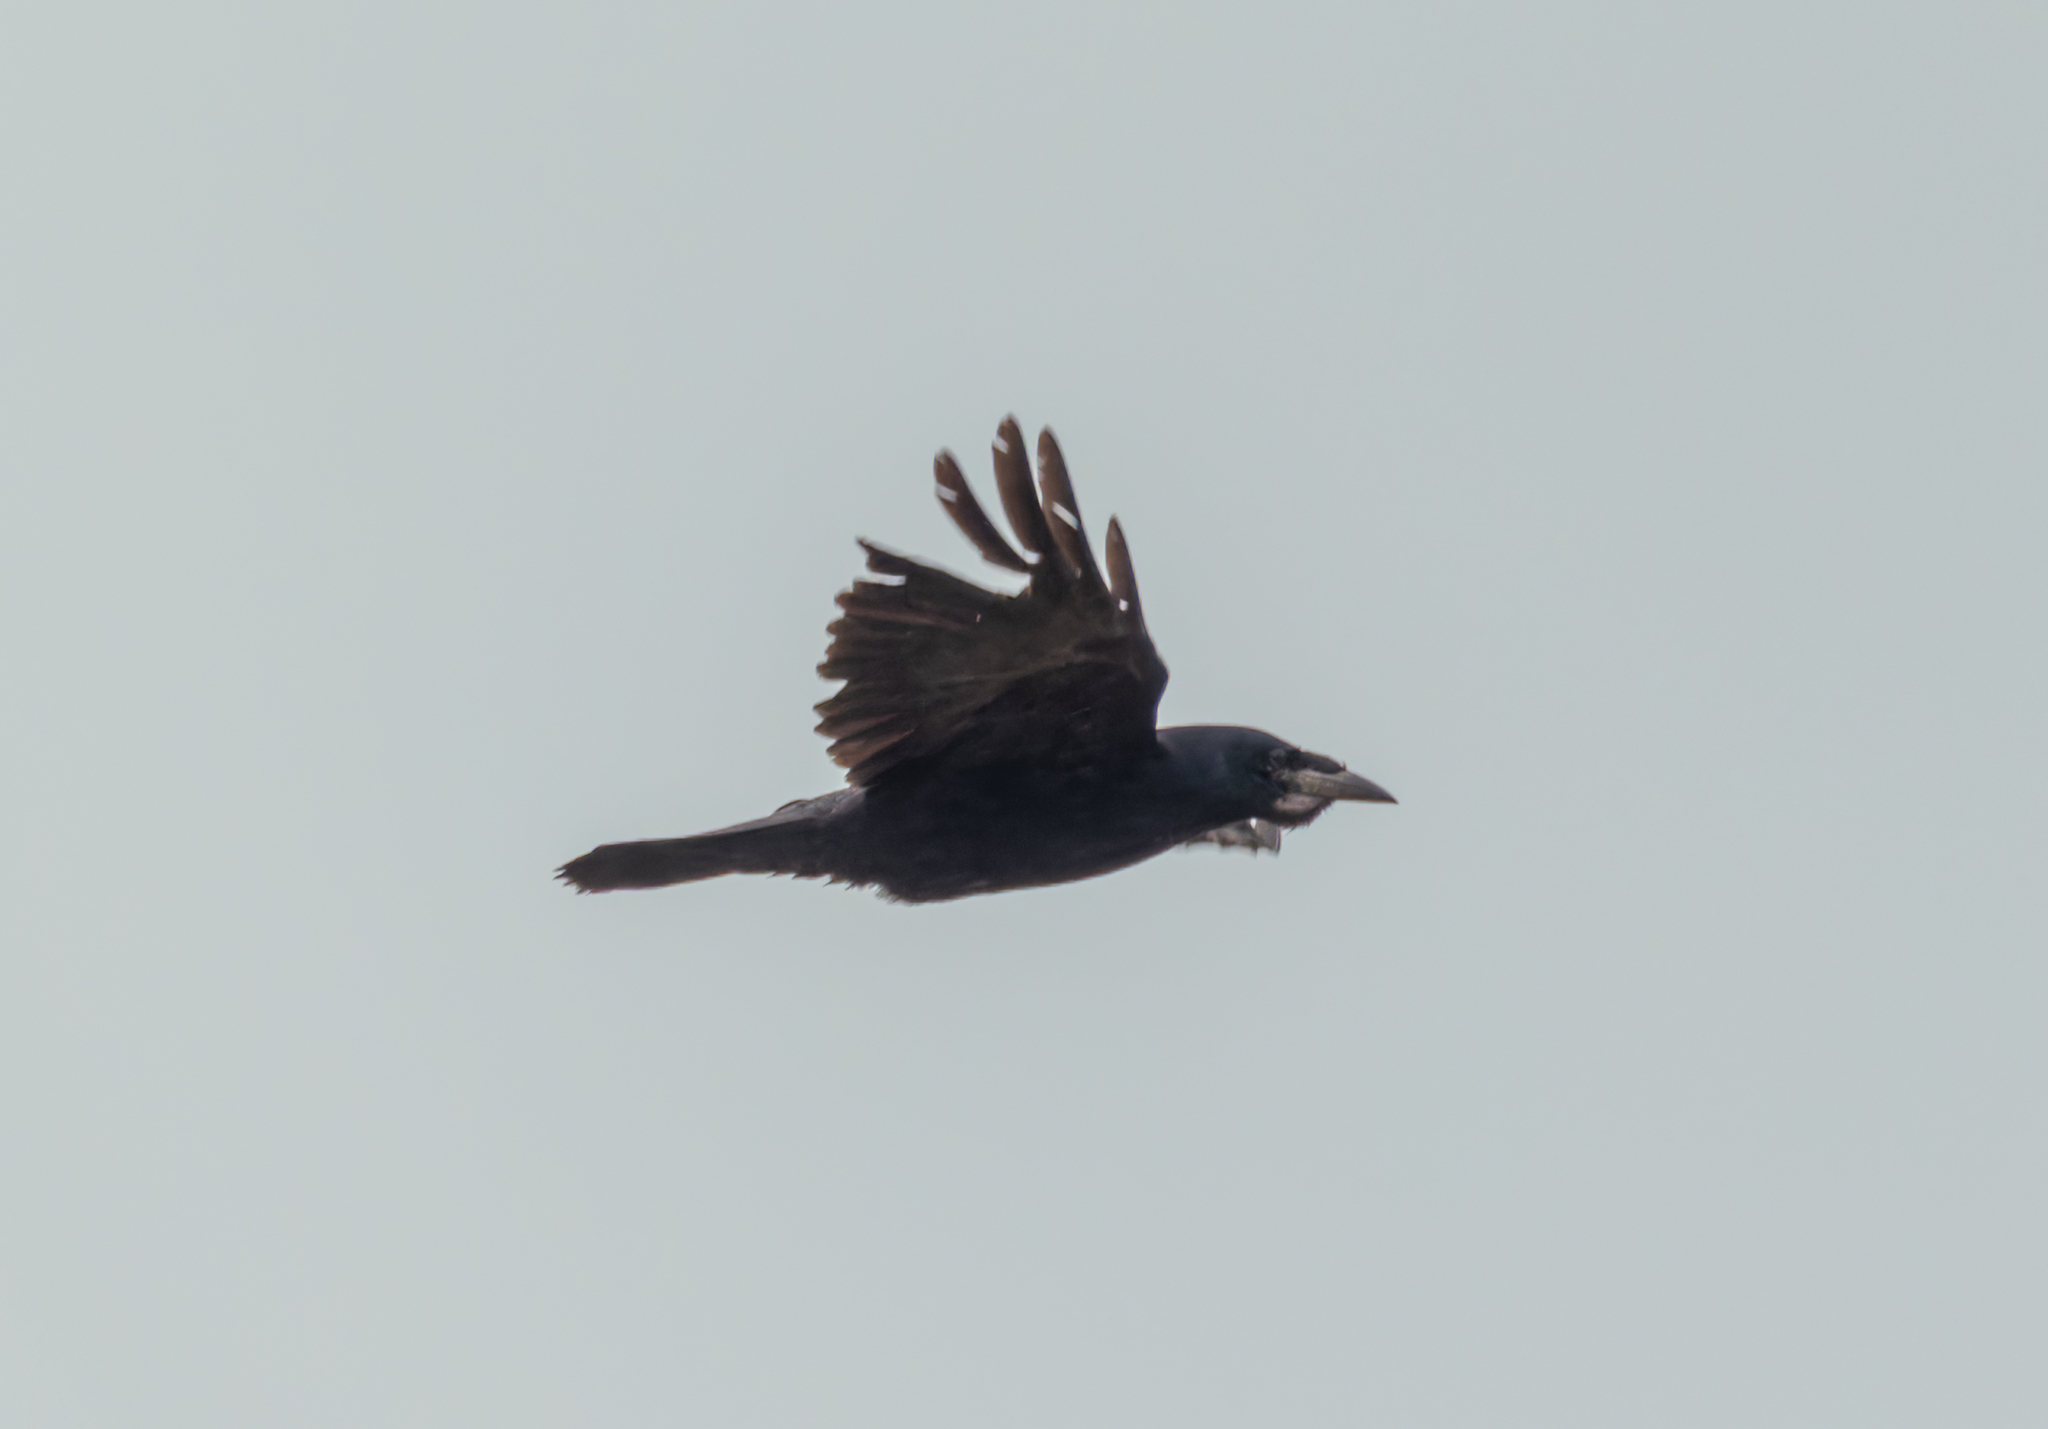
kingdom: Animalia
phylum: Chordata
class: Aves
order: Passeriformes
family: Corvidae
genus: Corvus
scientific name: Corvus frugilegus
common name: Rook
